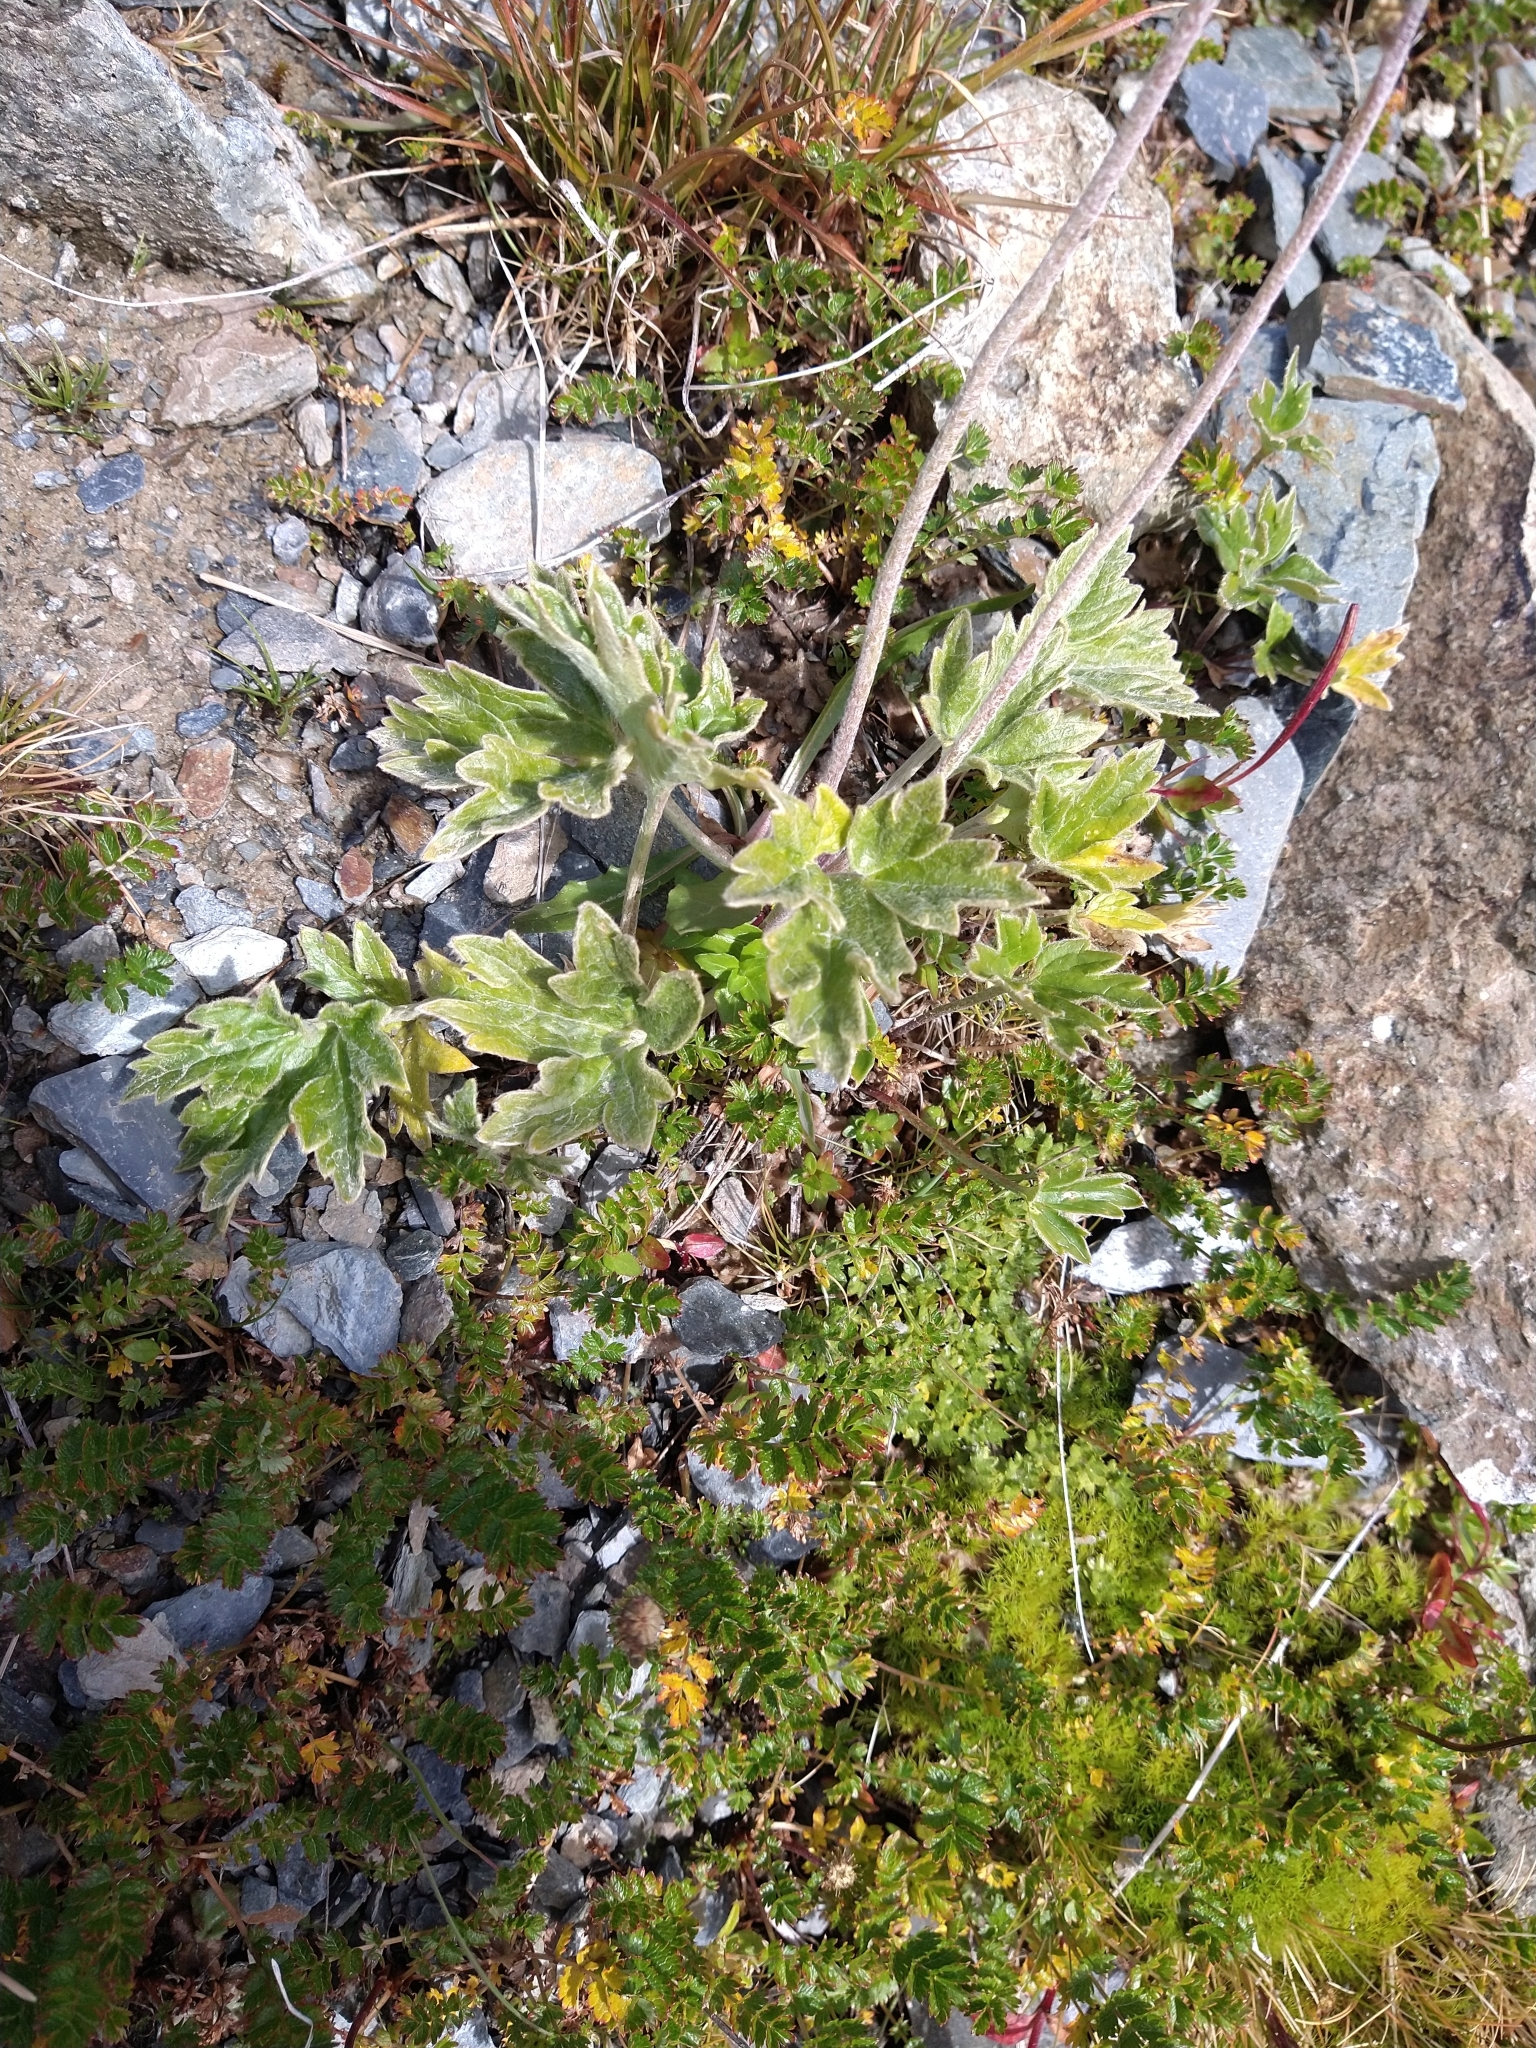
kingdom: Plantae
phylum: Tracheophyta
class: Magnoliopsida
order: Ranunculales
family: Ranunculaceae
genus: Hamadryas
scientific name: Hamadryas magellanica
